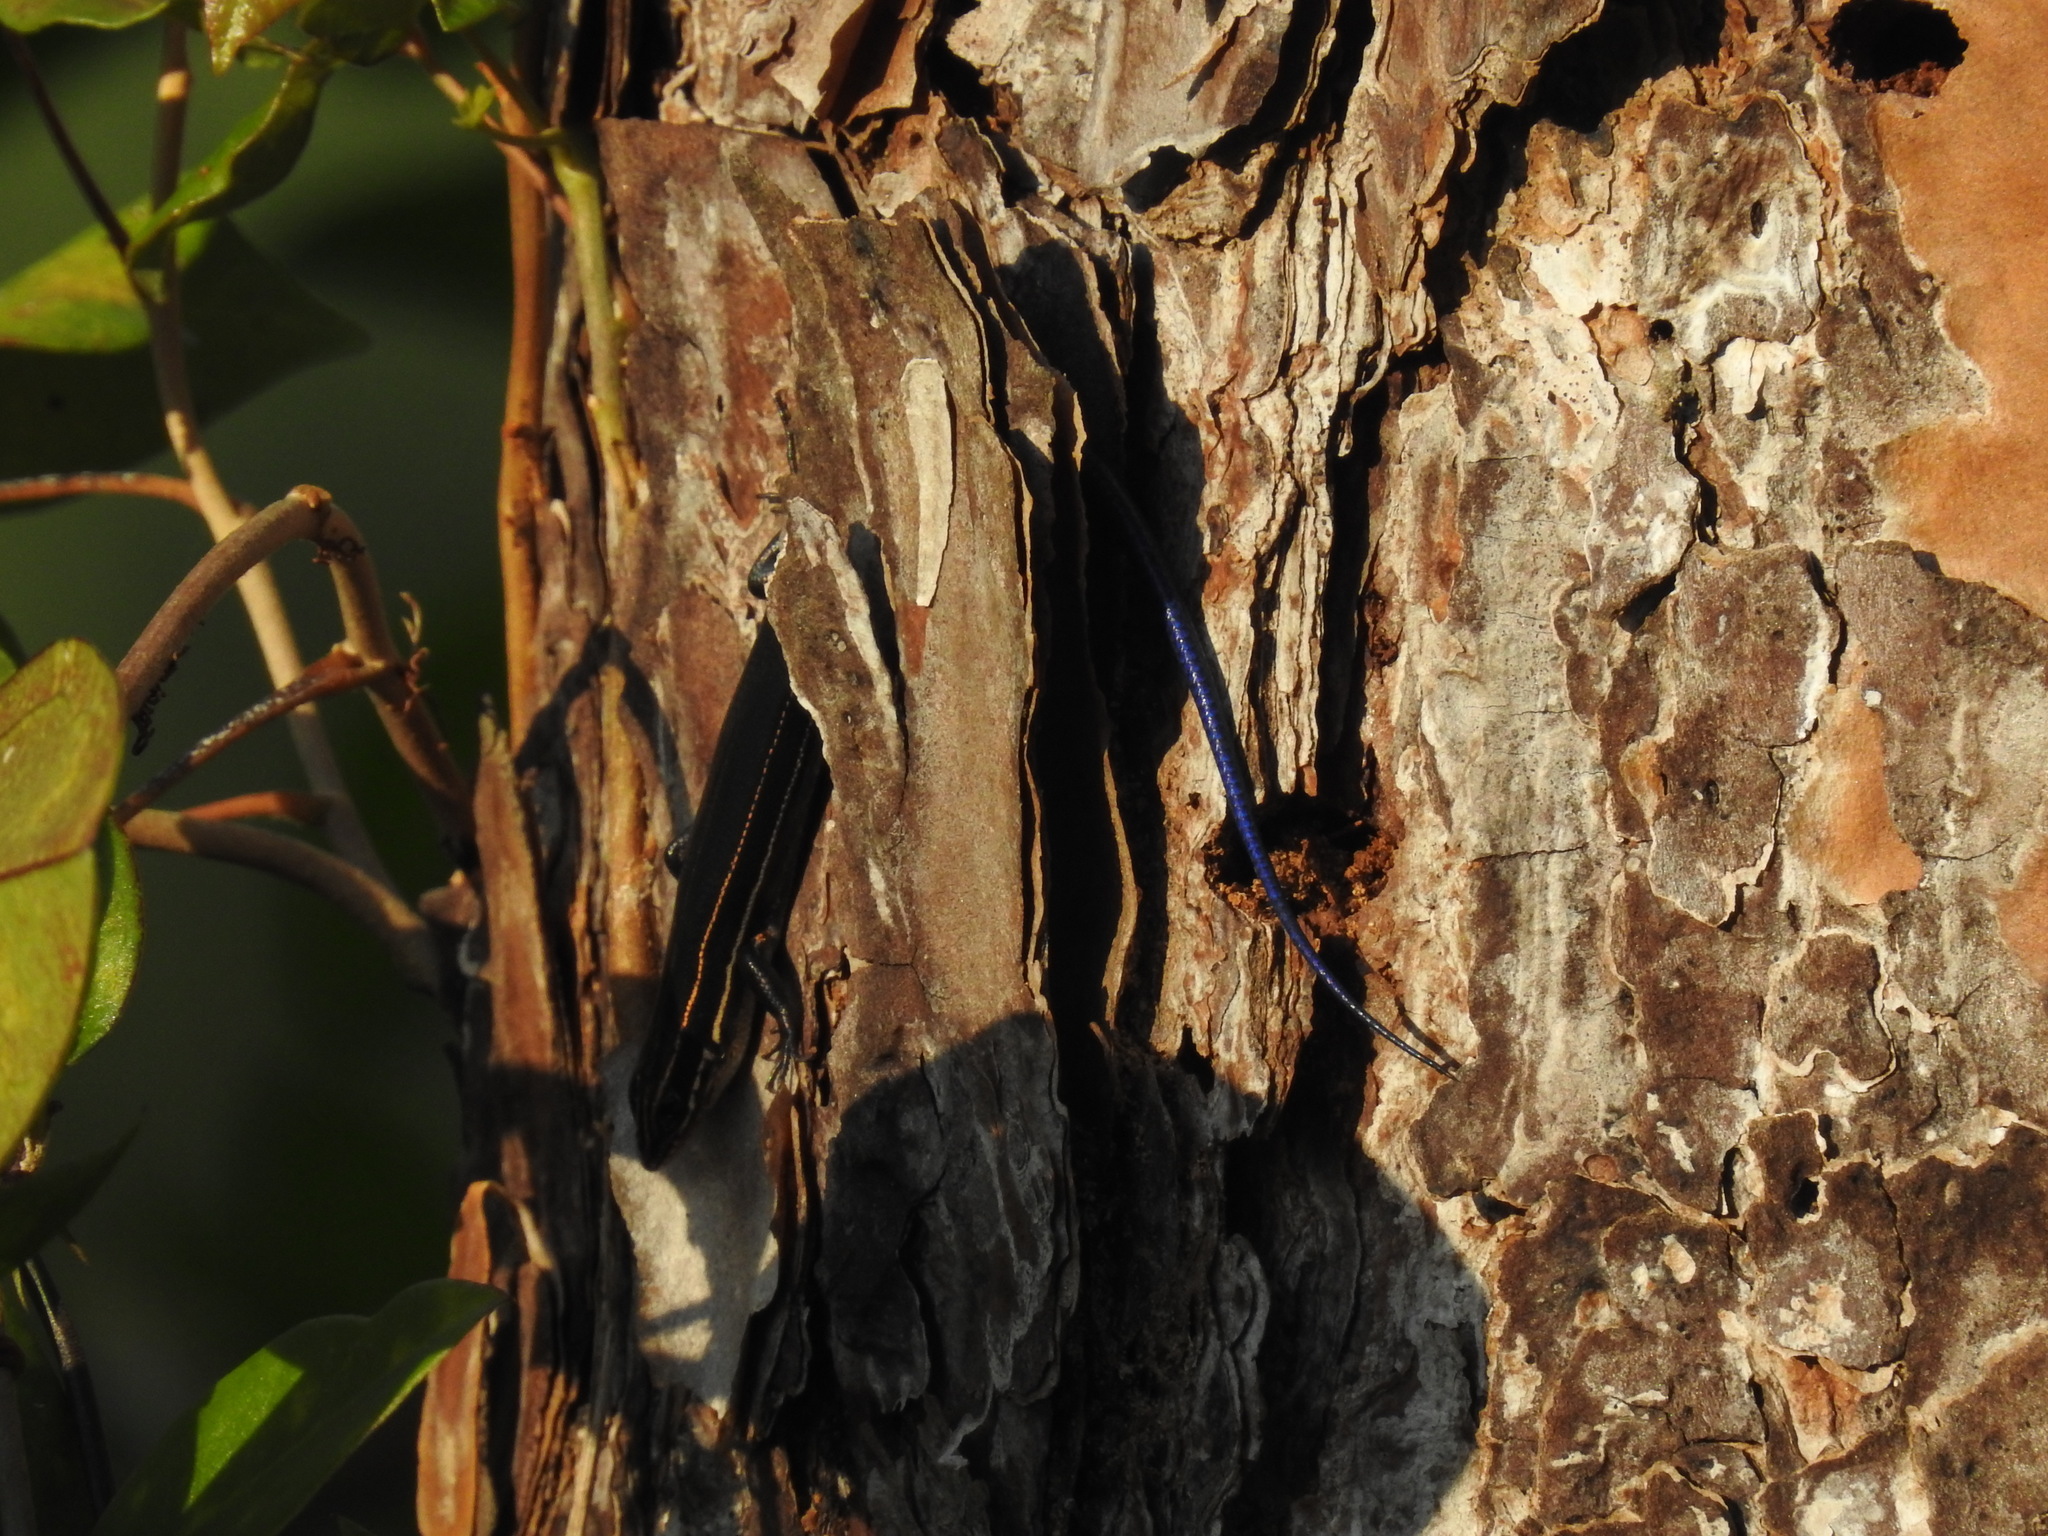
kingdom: Animalia
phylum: Chordata
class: Squamata
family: Scincidae
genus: Plestiodon
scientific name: Plestiodon inexpectatus
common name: Southeastern five-lined skink
